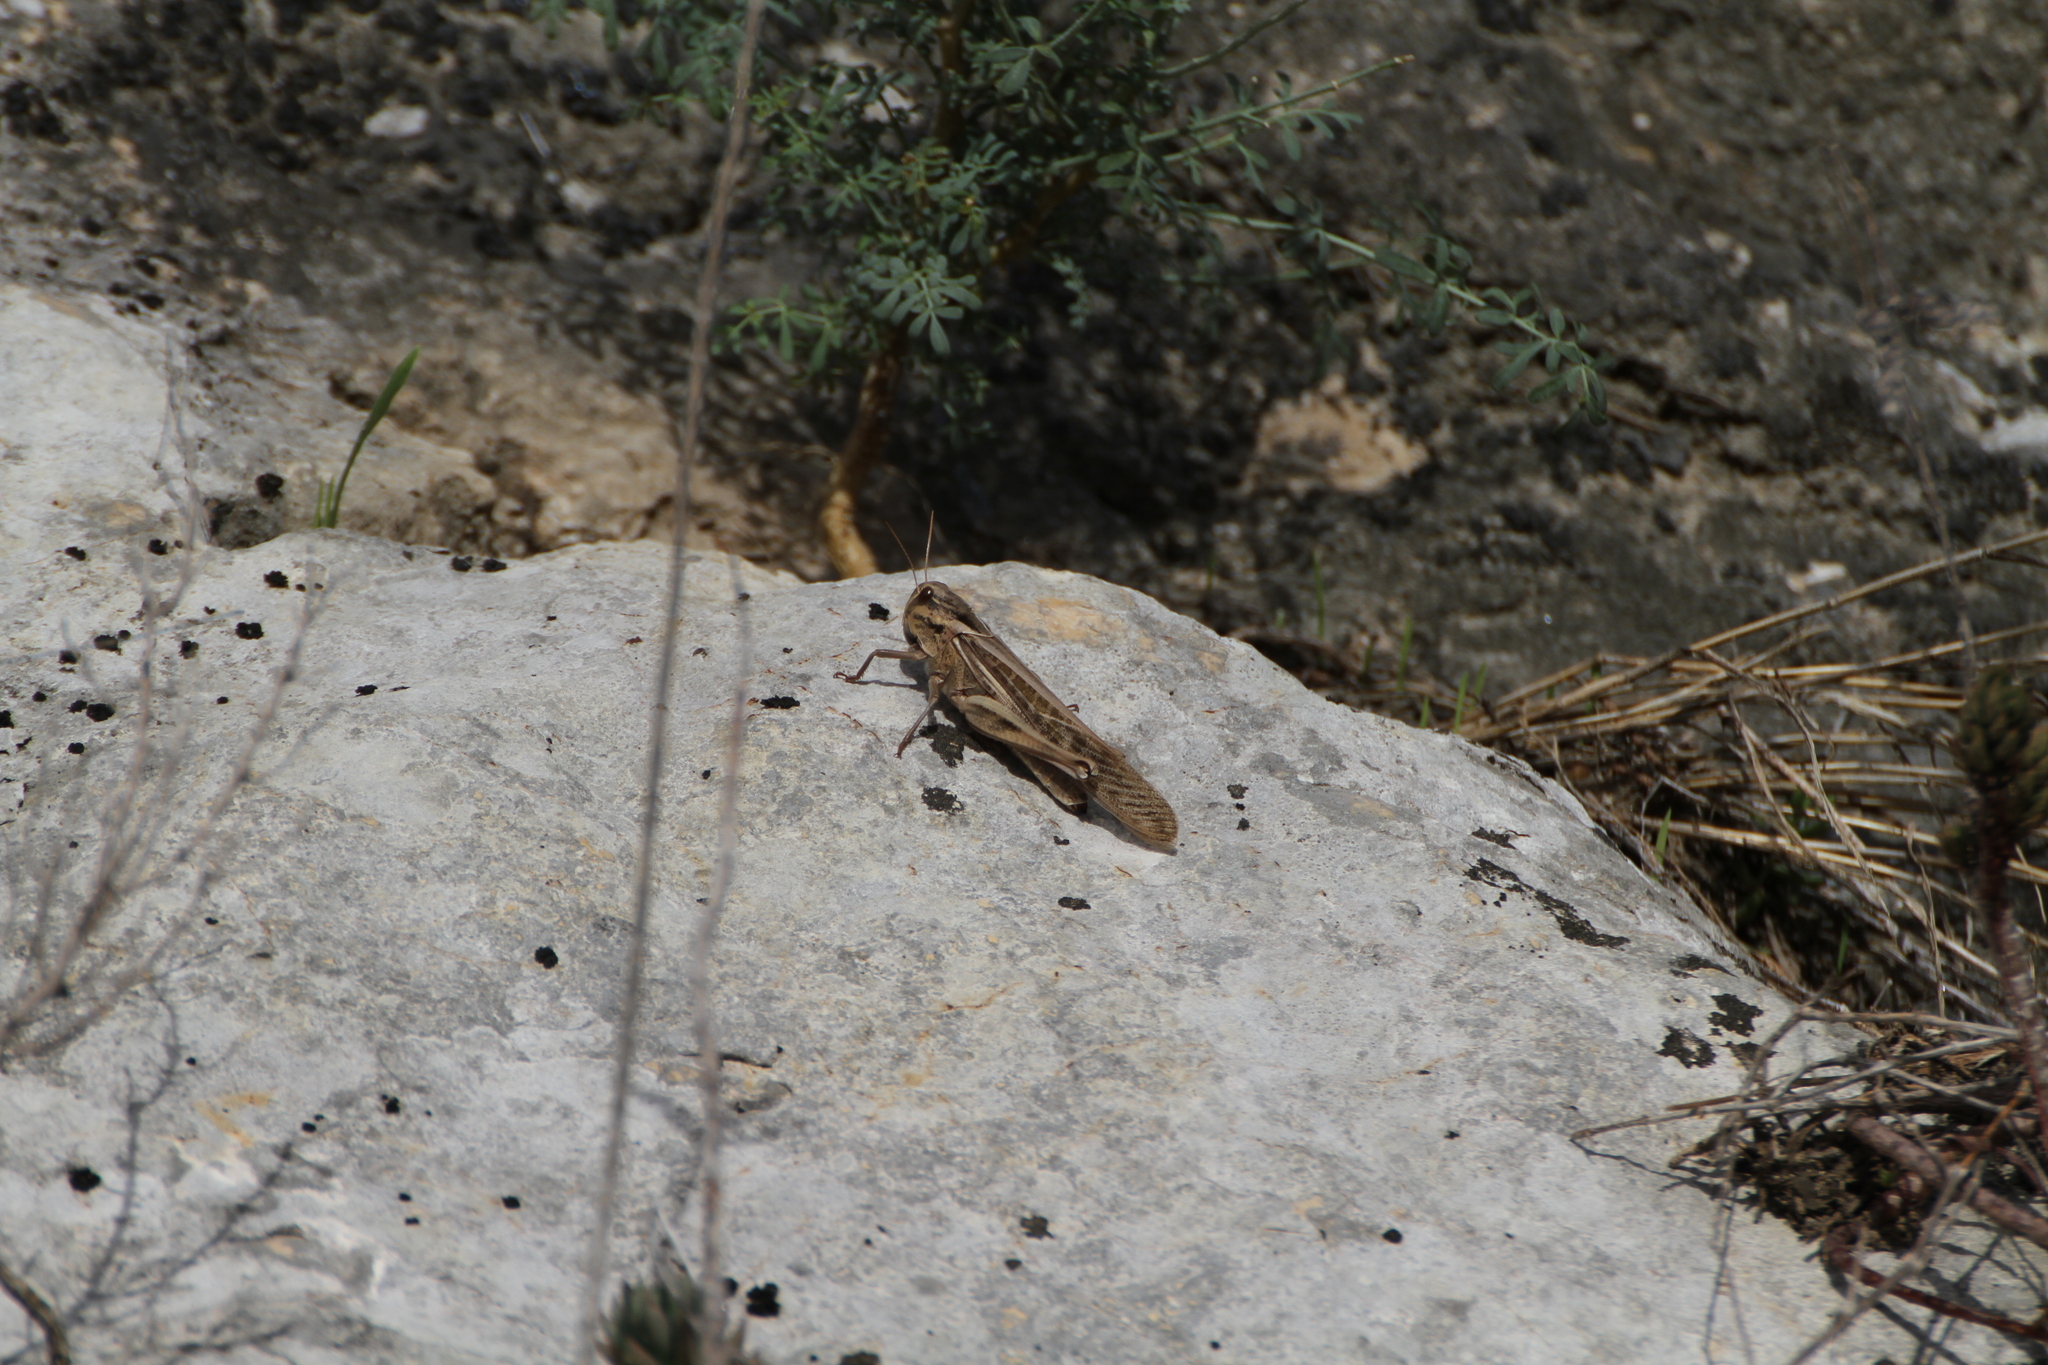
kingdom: Animalia
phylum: Arthropoda
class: Insecta
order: Orthoptera
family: Acrididae
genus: Locusta
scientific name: Locusta migratoria
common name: Migratory locust
